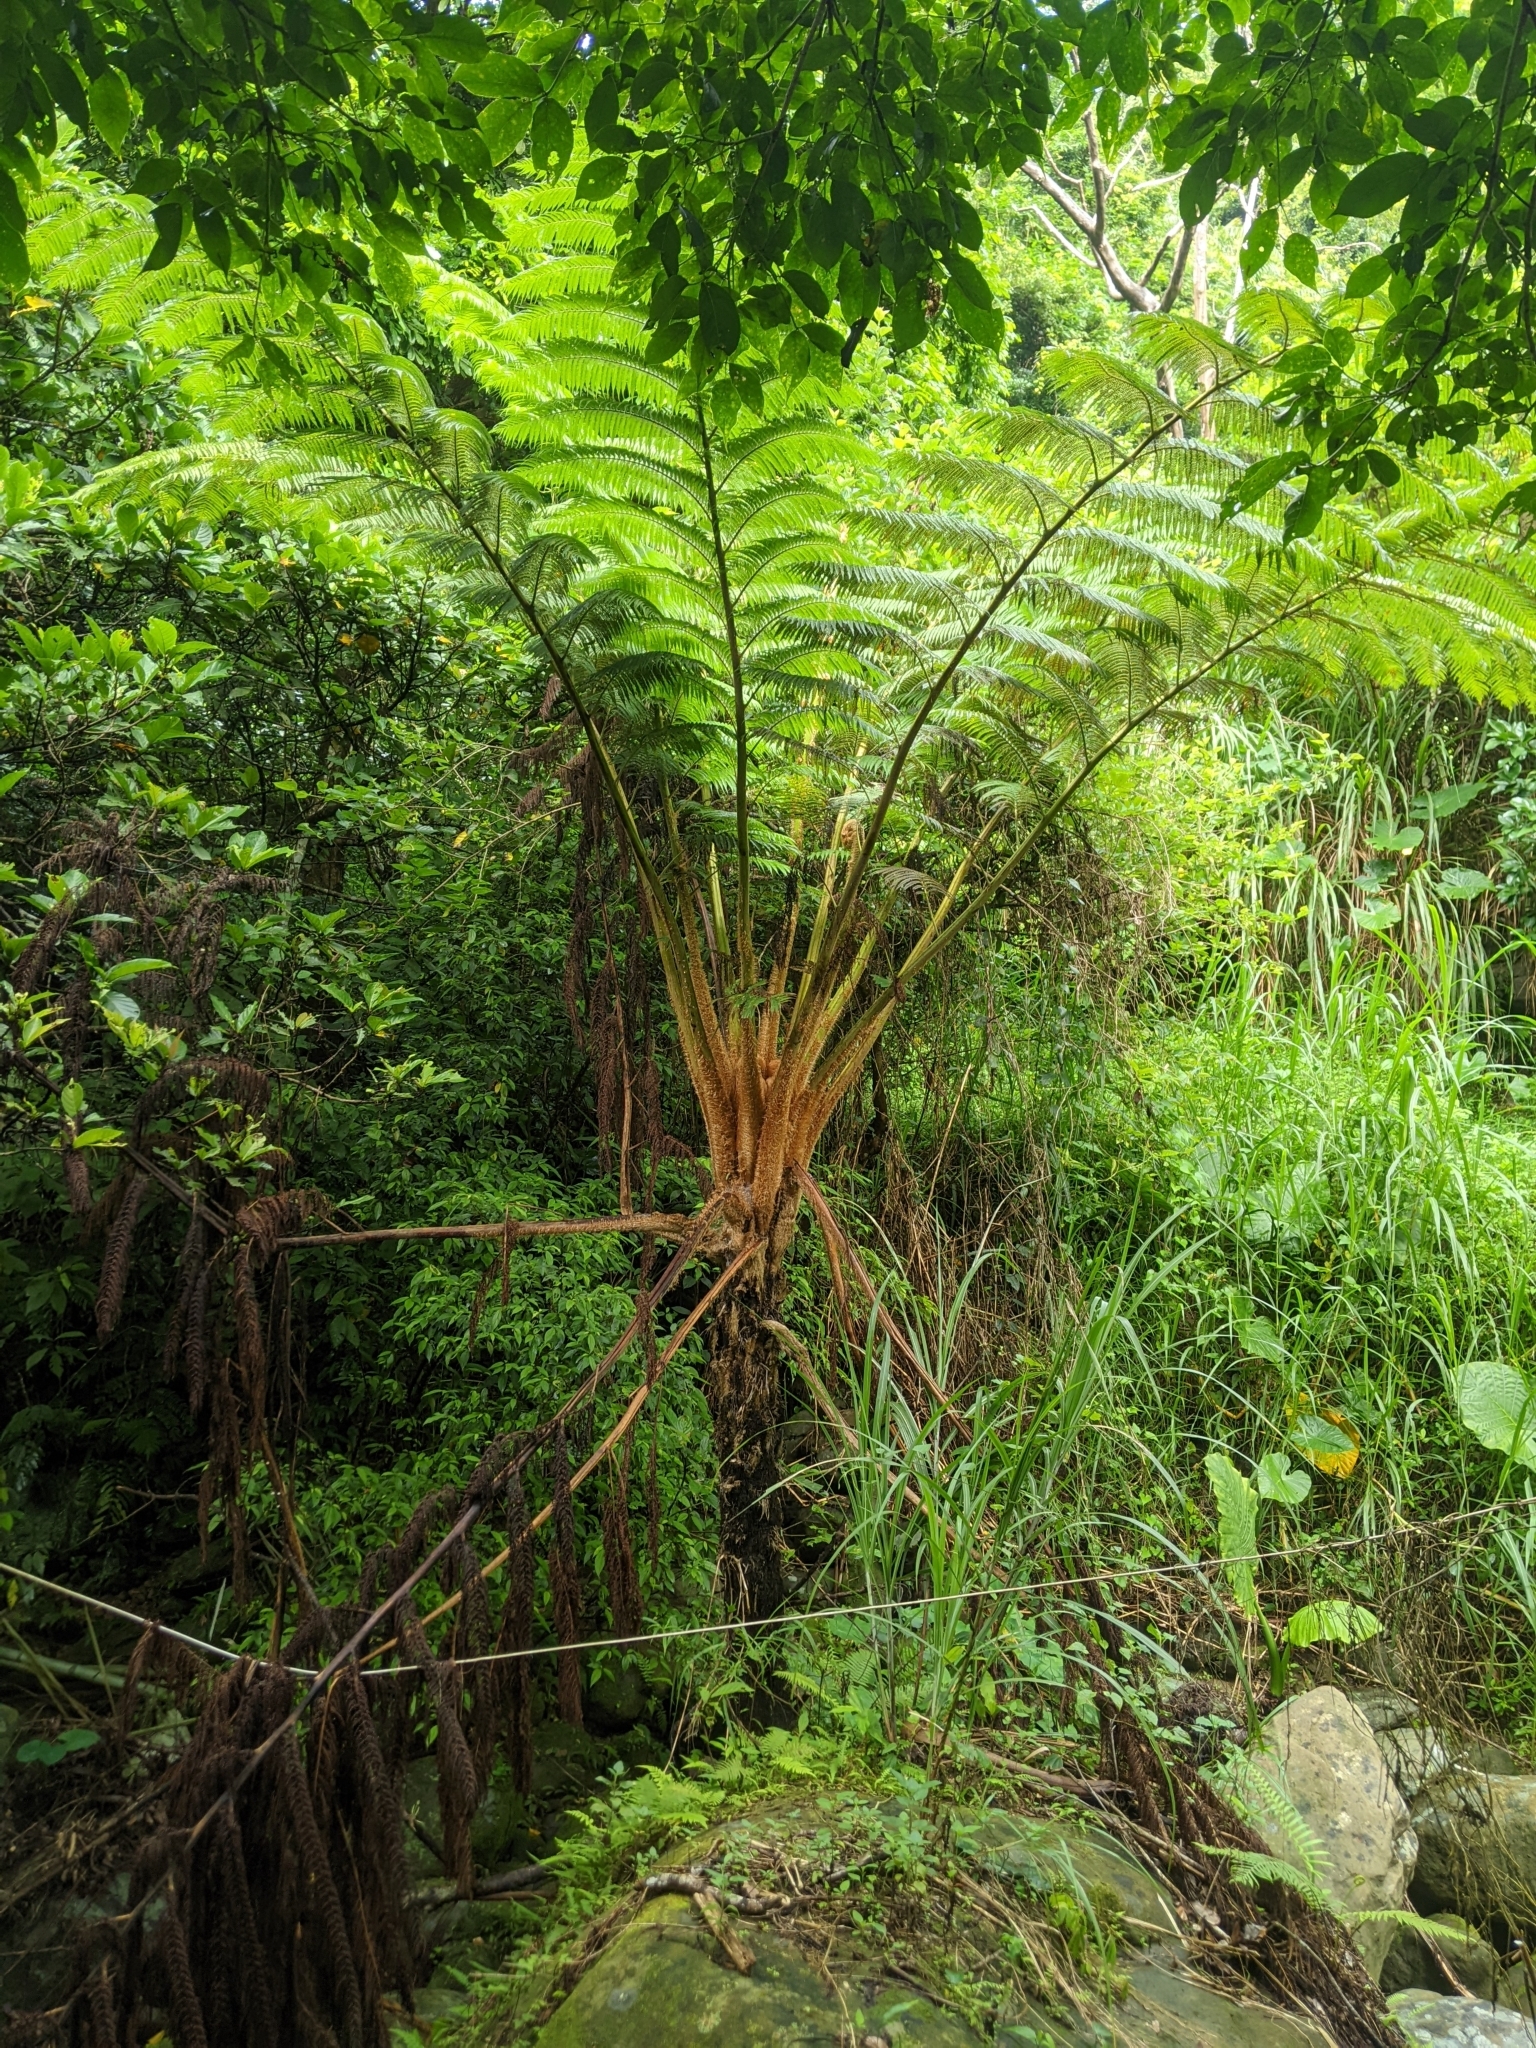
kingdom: Plantae
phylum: Tracheophyta
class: Polypodiopsida
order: Cyatheales
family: Cyatheaceae
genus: Alsophila
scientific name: Alsophila lepifera
